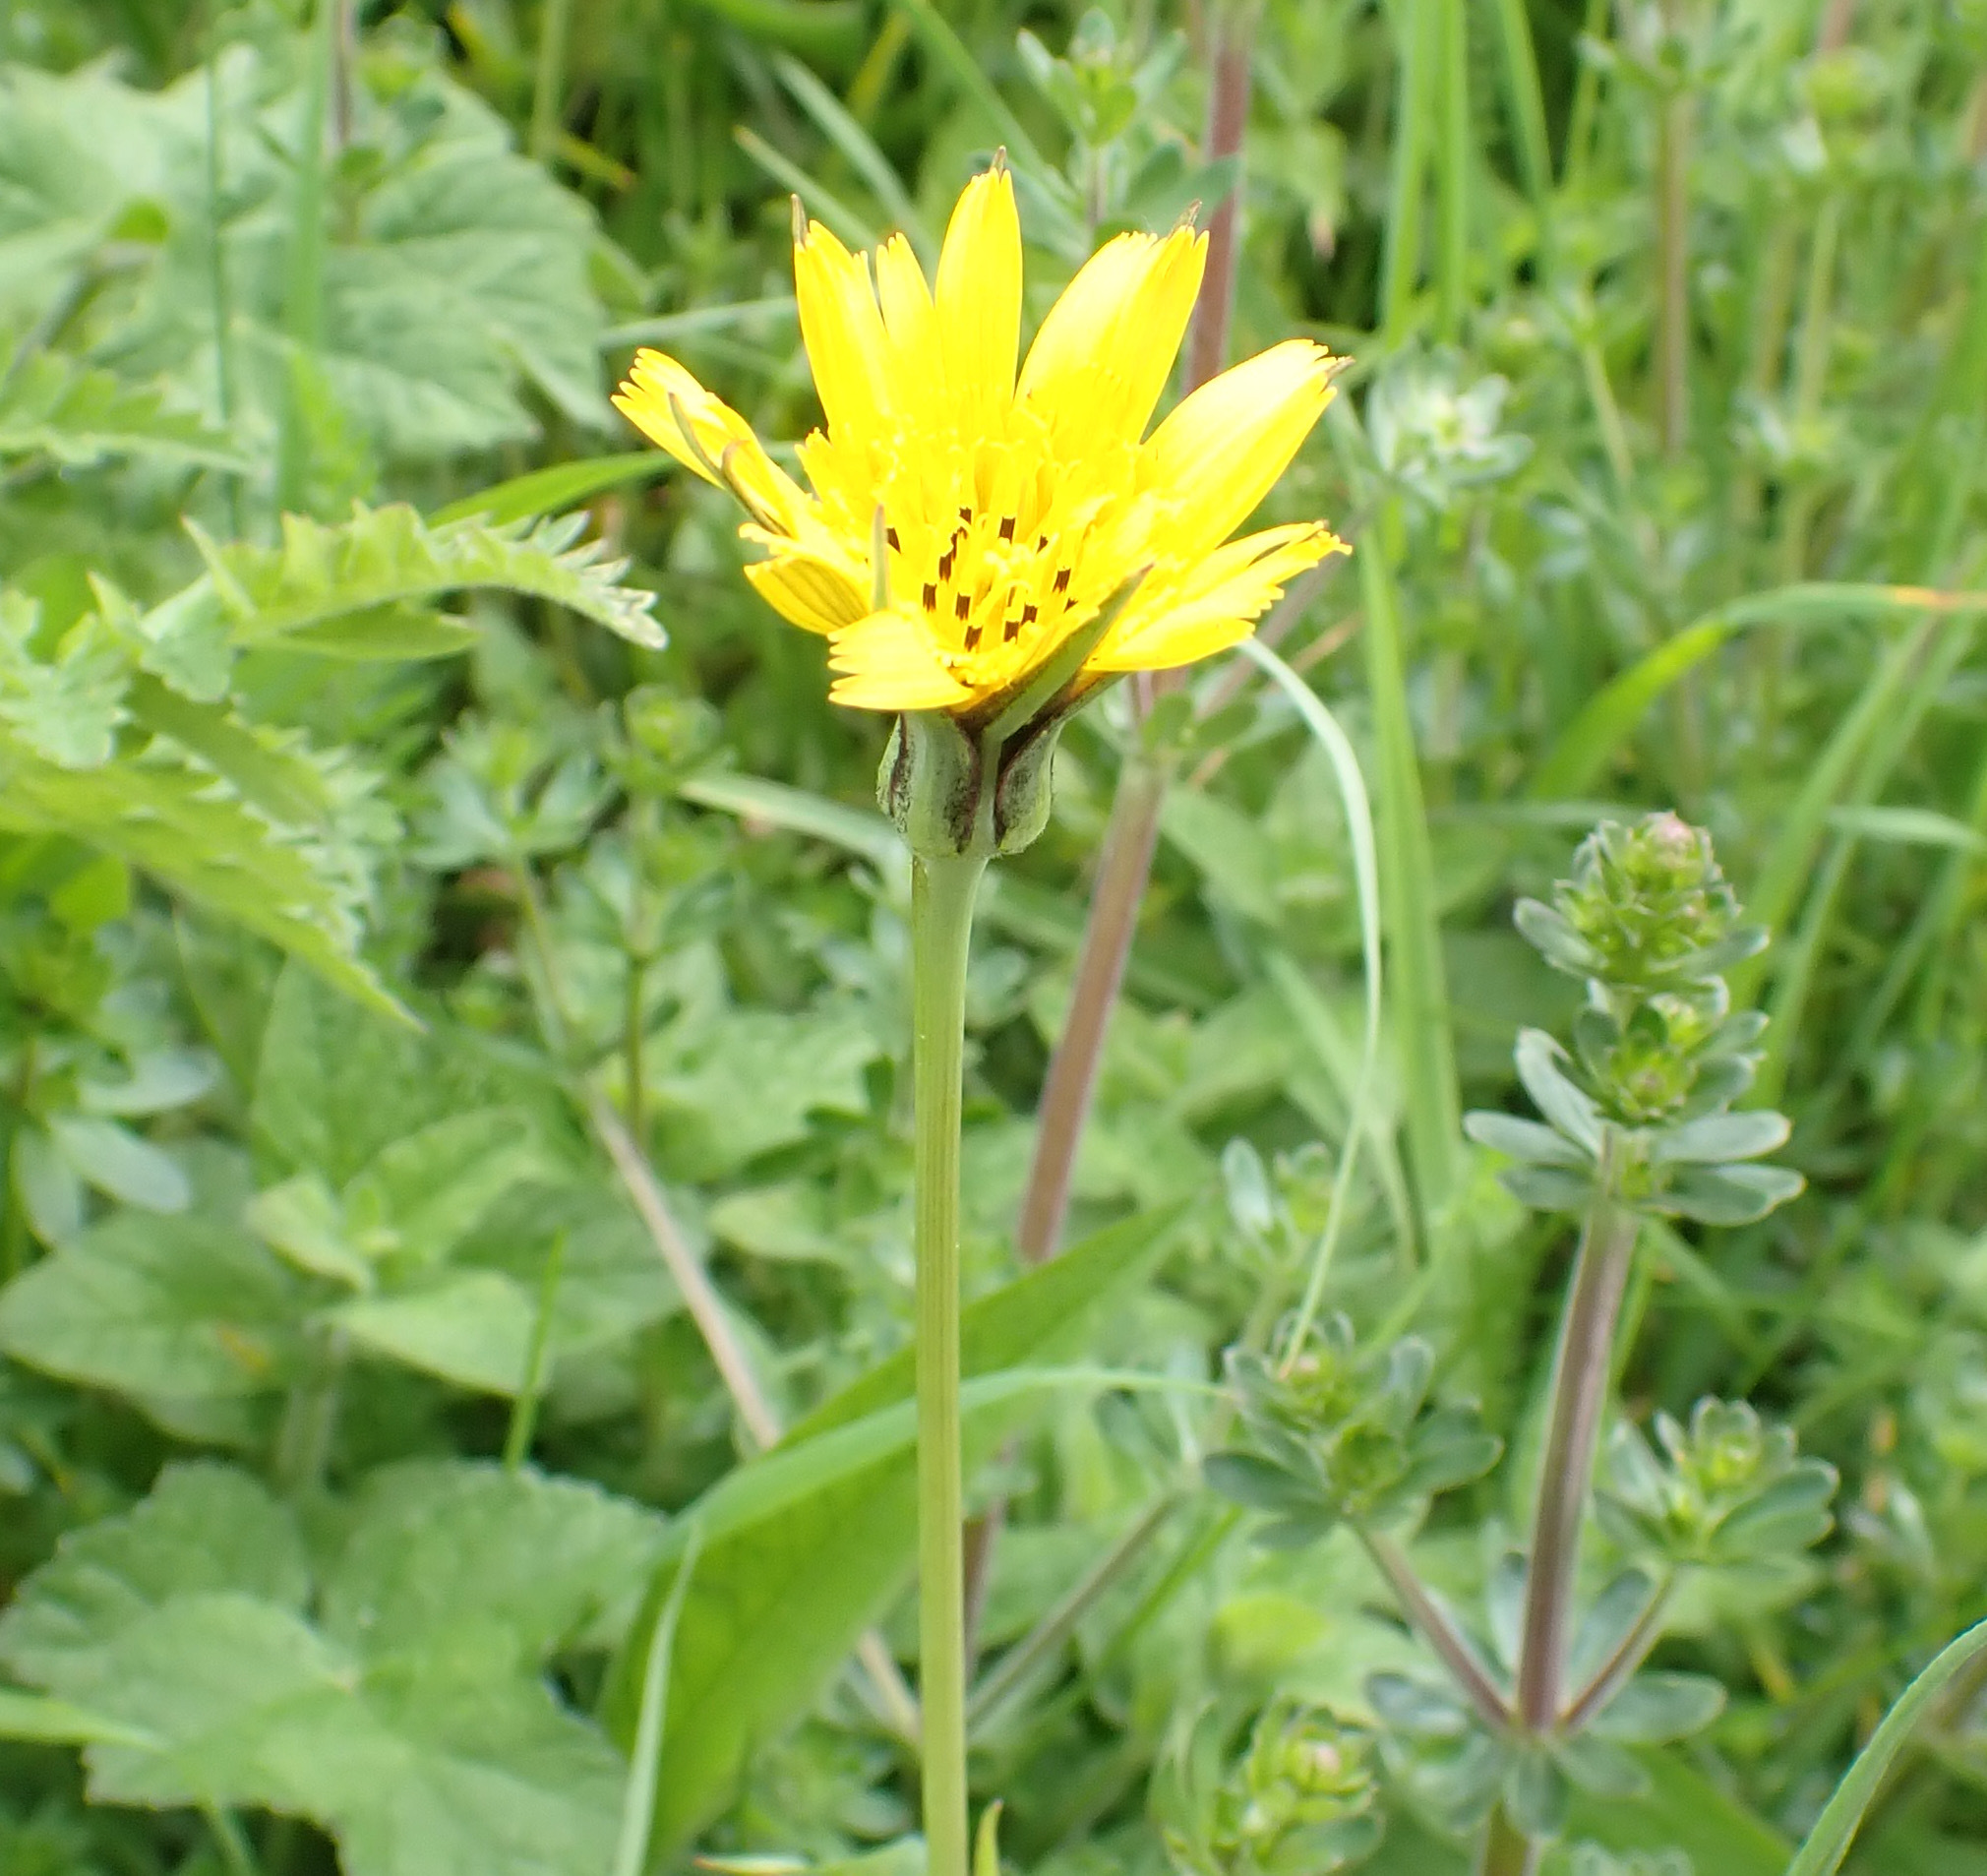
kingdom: Plantae
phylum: Tracheophyta
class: Magnoliopsida
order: Asterales
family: Asteraceae
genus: Tragopogon
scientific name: Tragopogon pratensis
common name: Goat's-beard
